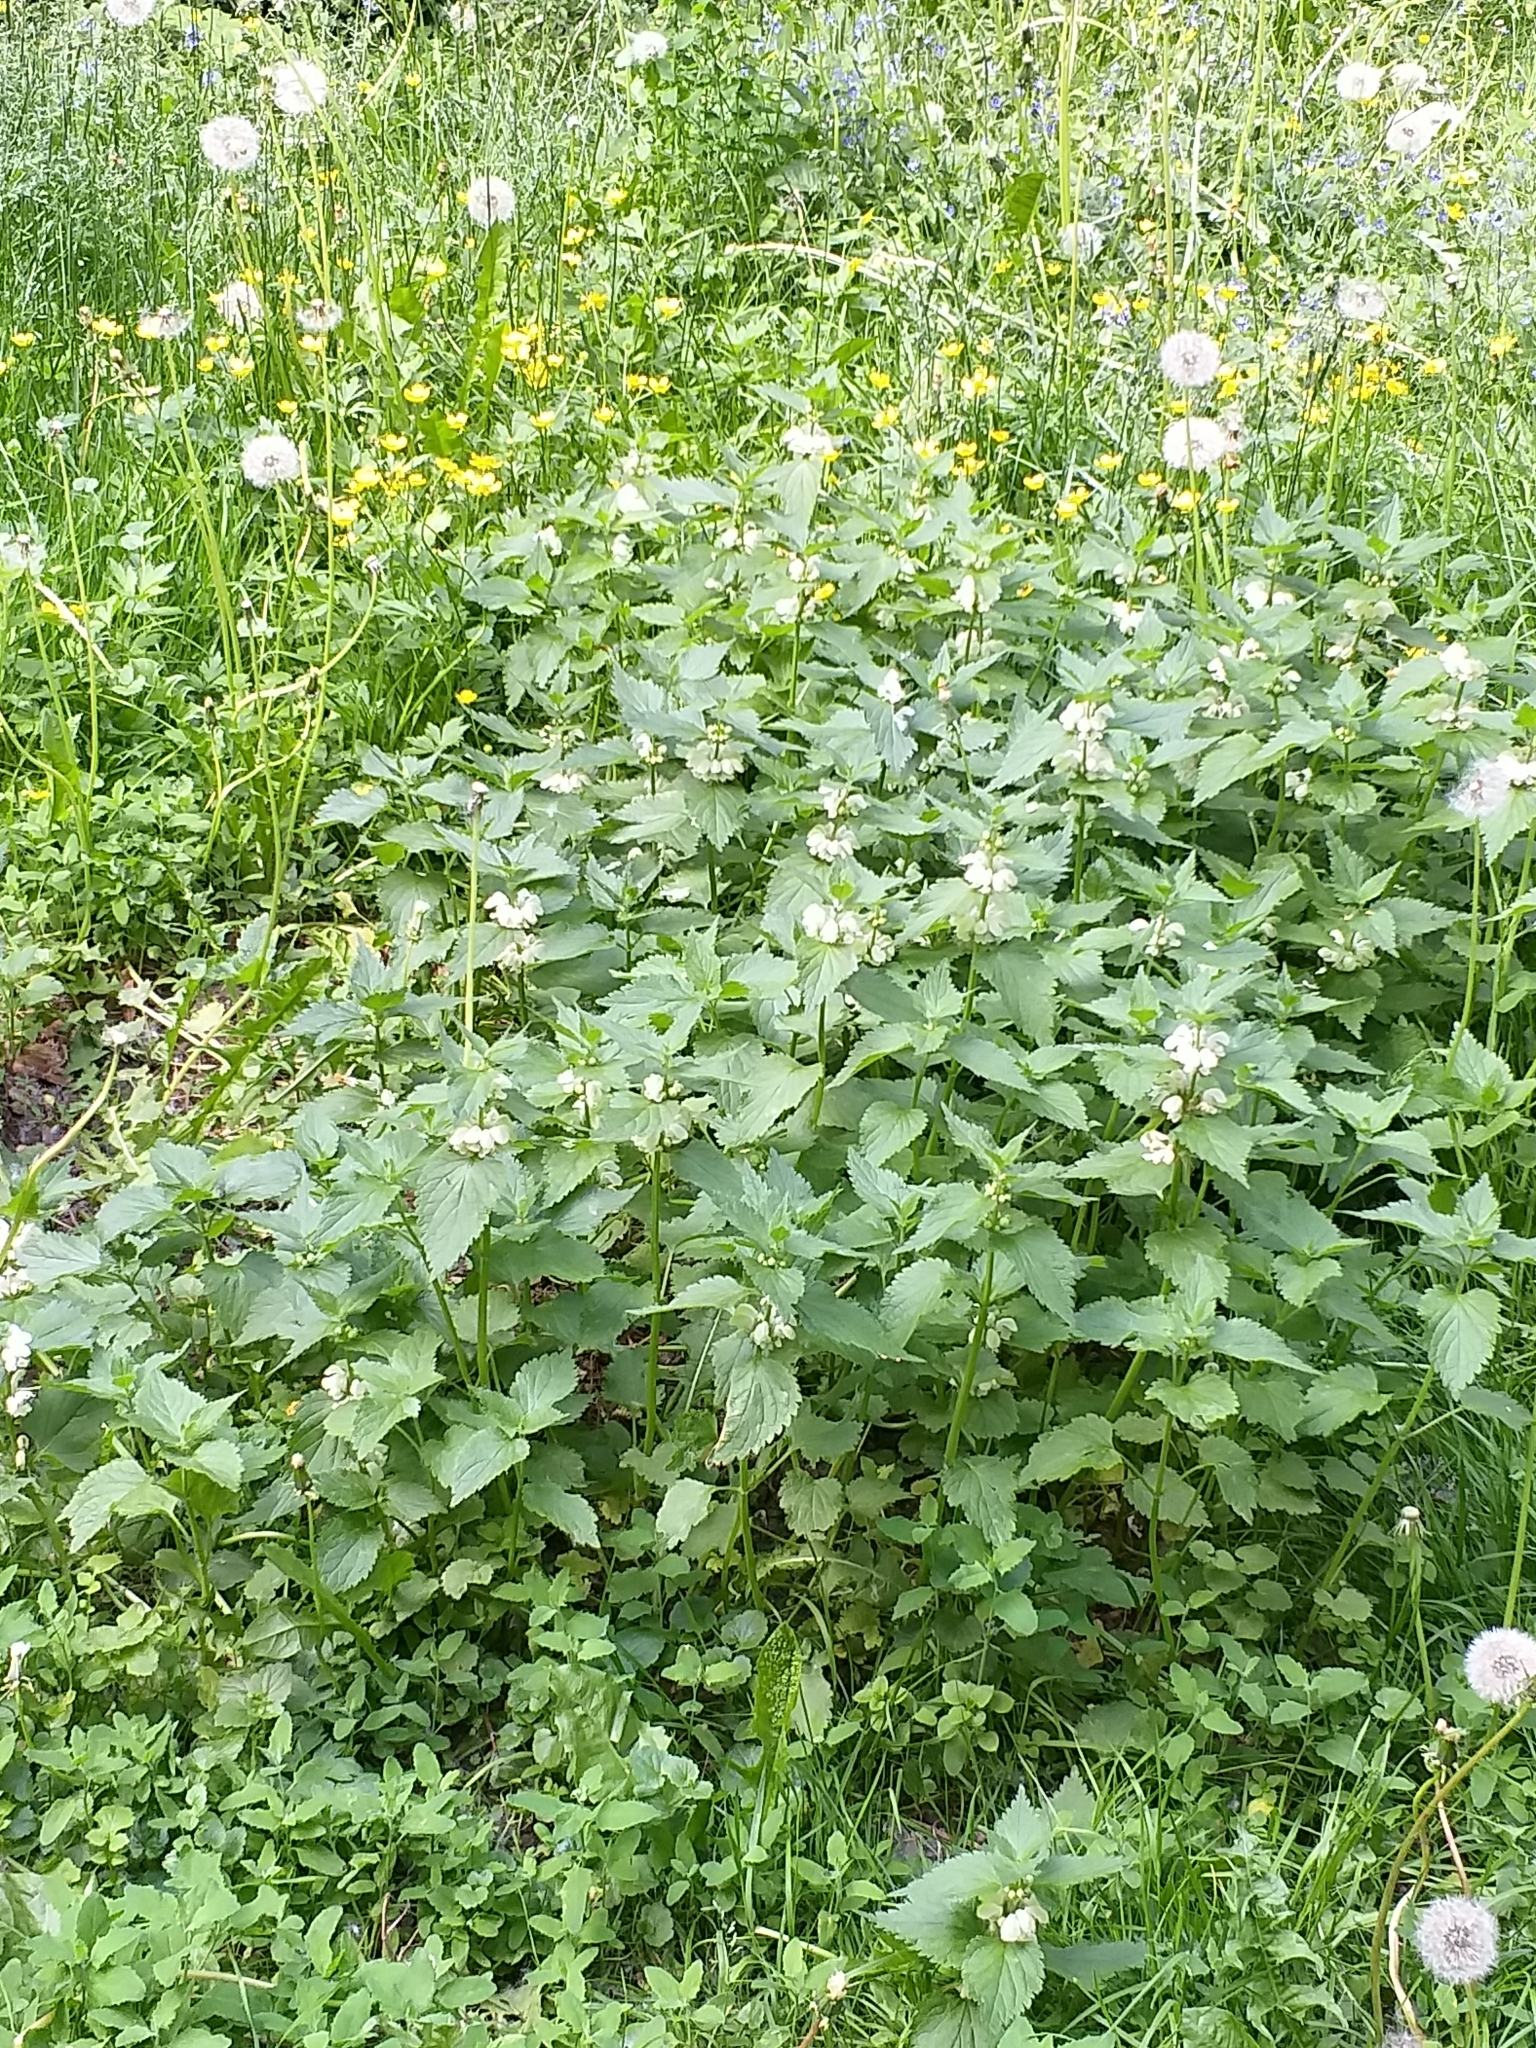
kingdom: Plantae
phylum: Tracheophyta
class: Magnoliopsida
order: Lamiales
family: Lamiaceae
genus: Lamium
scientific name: Lamium album
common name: White dead-nettle
